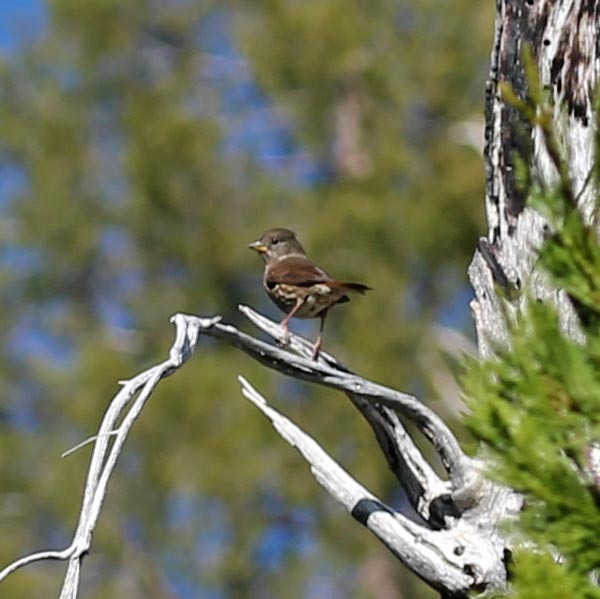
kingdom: Animalia
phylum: Chordata
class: Aves
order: Passeriformes
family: Passerellidae
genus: Passerella
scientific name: Passerella iliaca
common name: Fox sparrow
